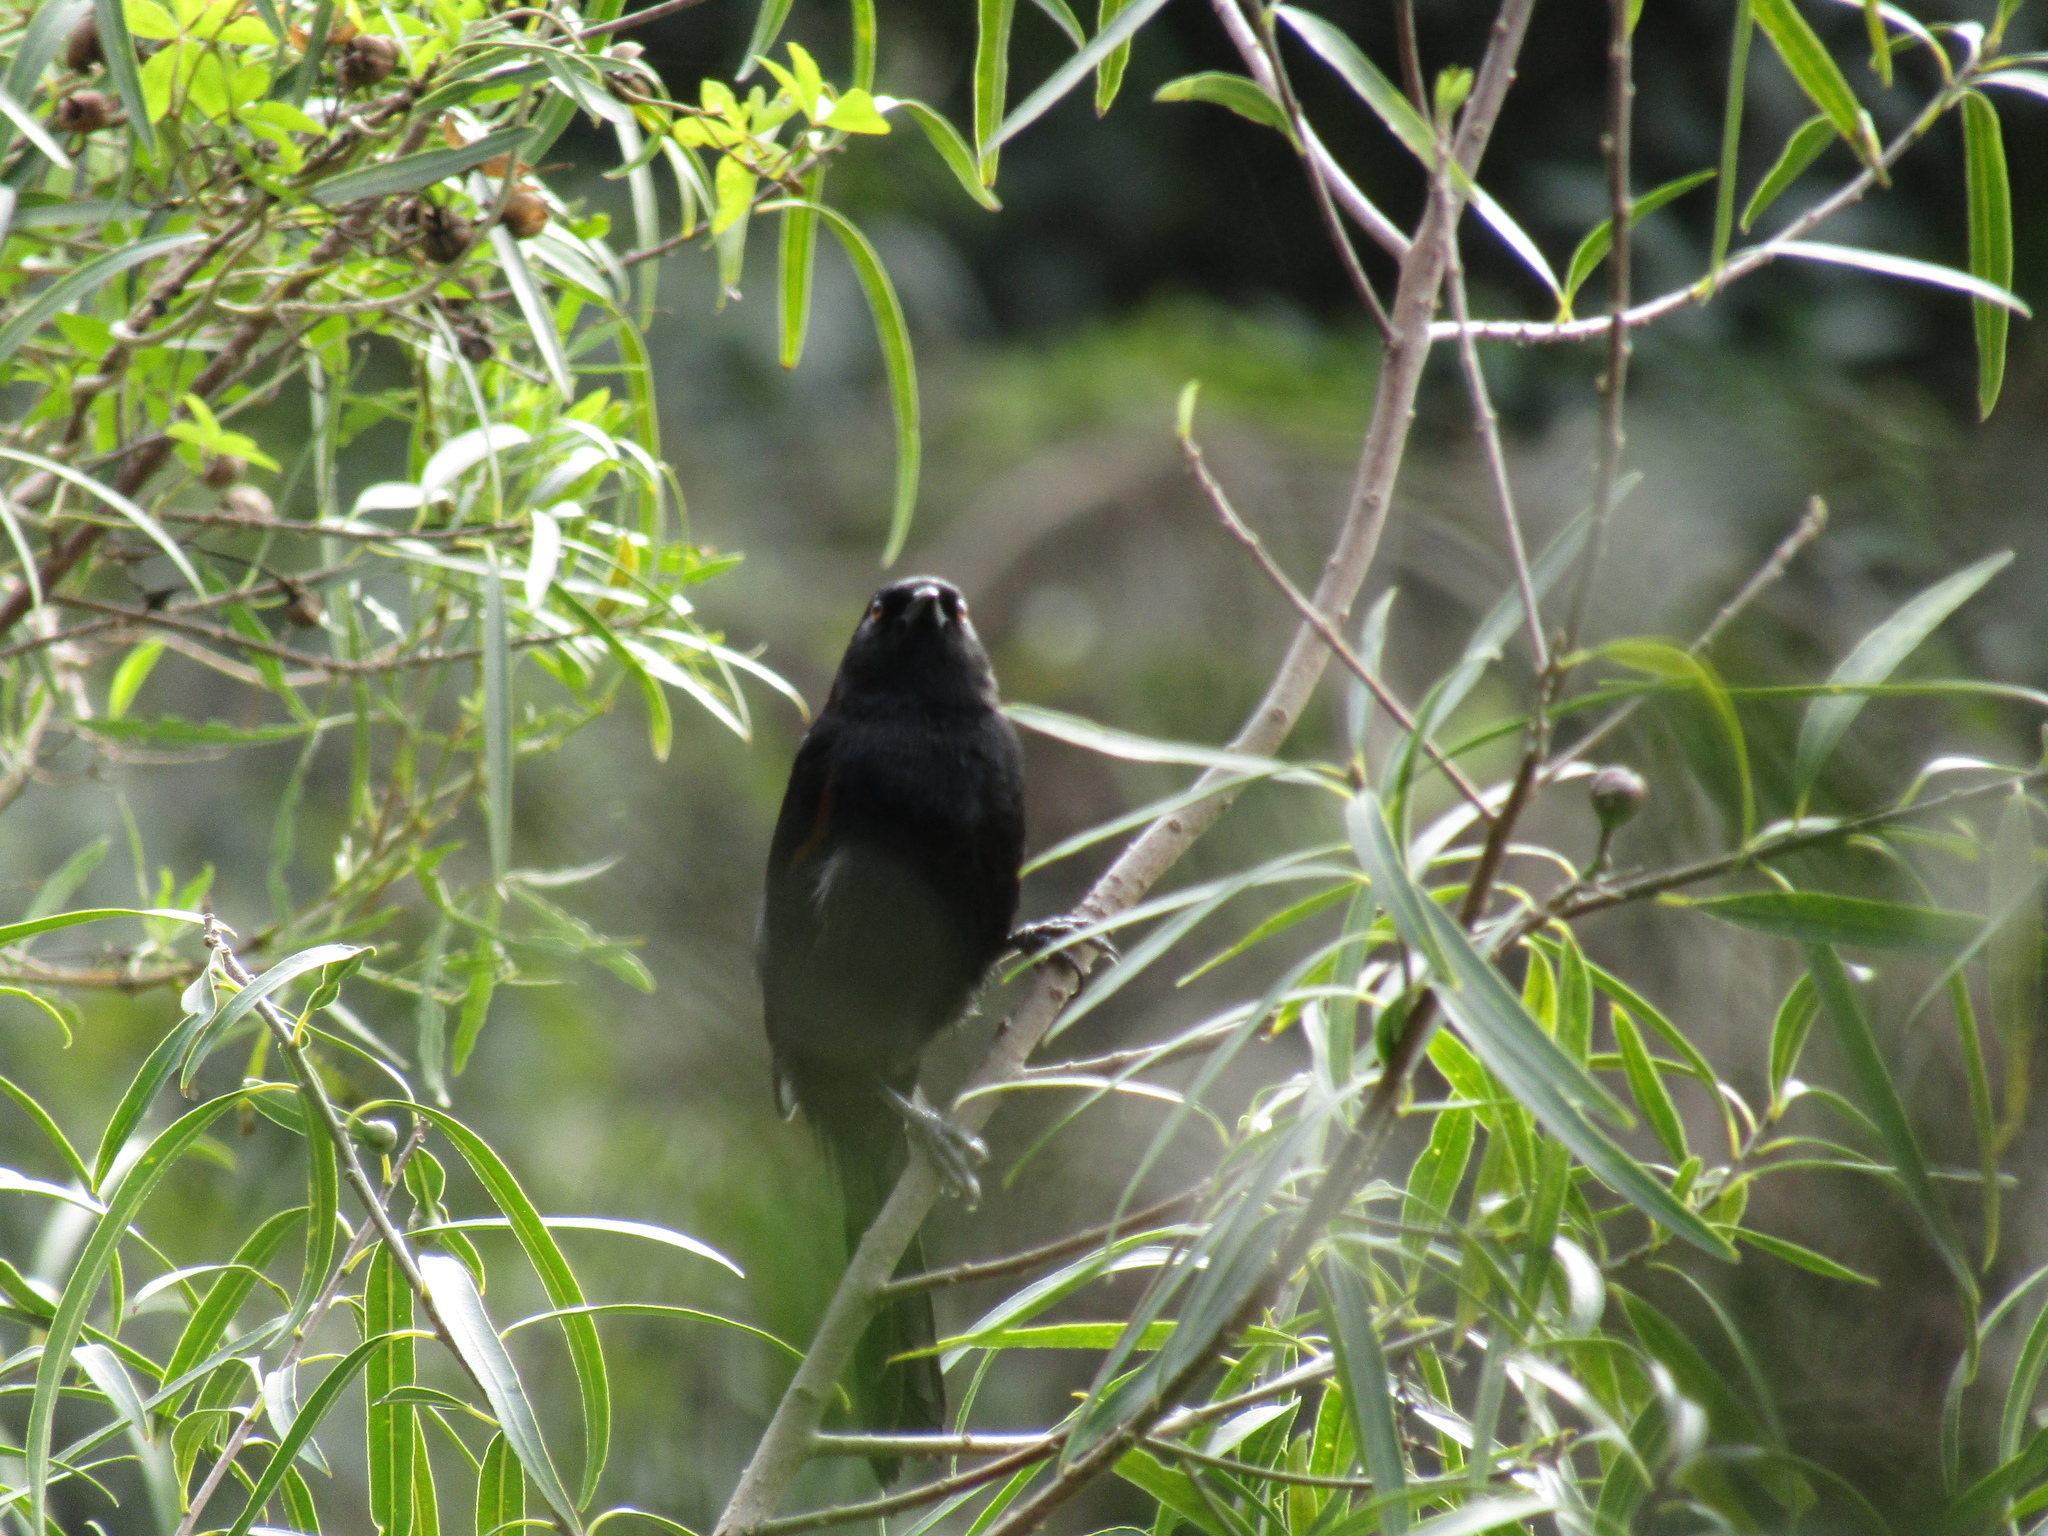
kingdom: Animalia
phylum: Chordata
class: Aves
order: Passeriformes
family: Icteridae
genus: Icterus
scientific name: Icterus cayanensis
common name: Epaulet oriole
